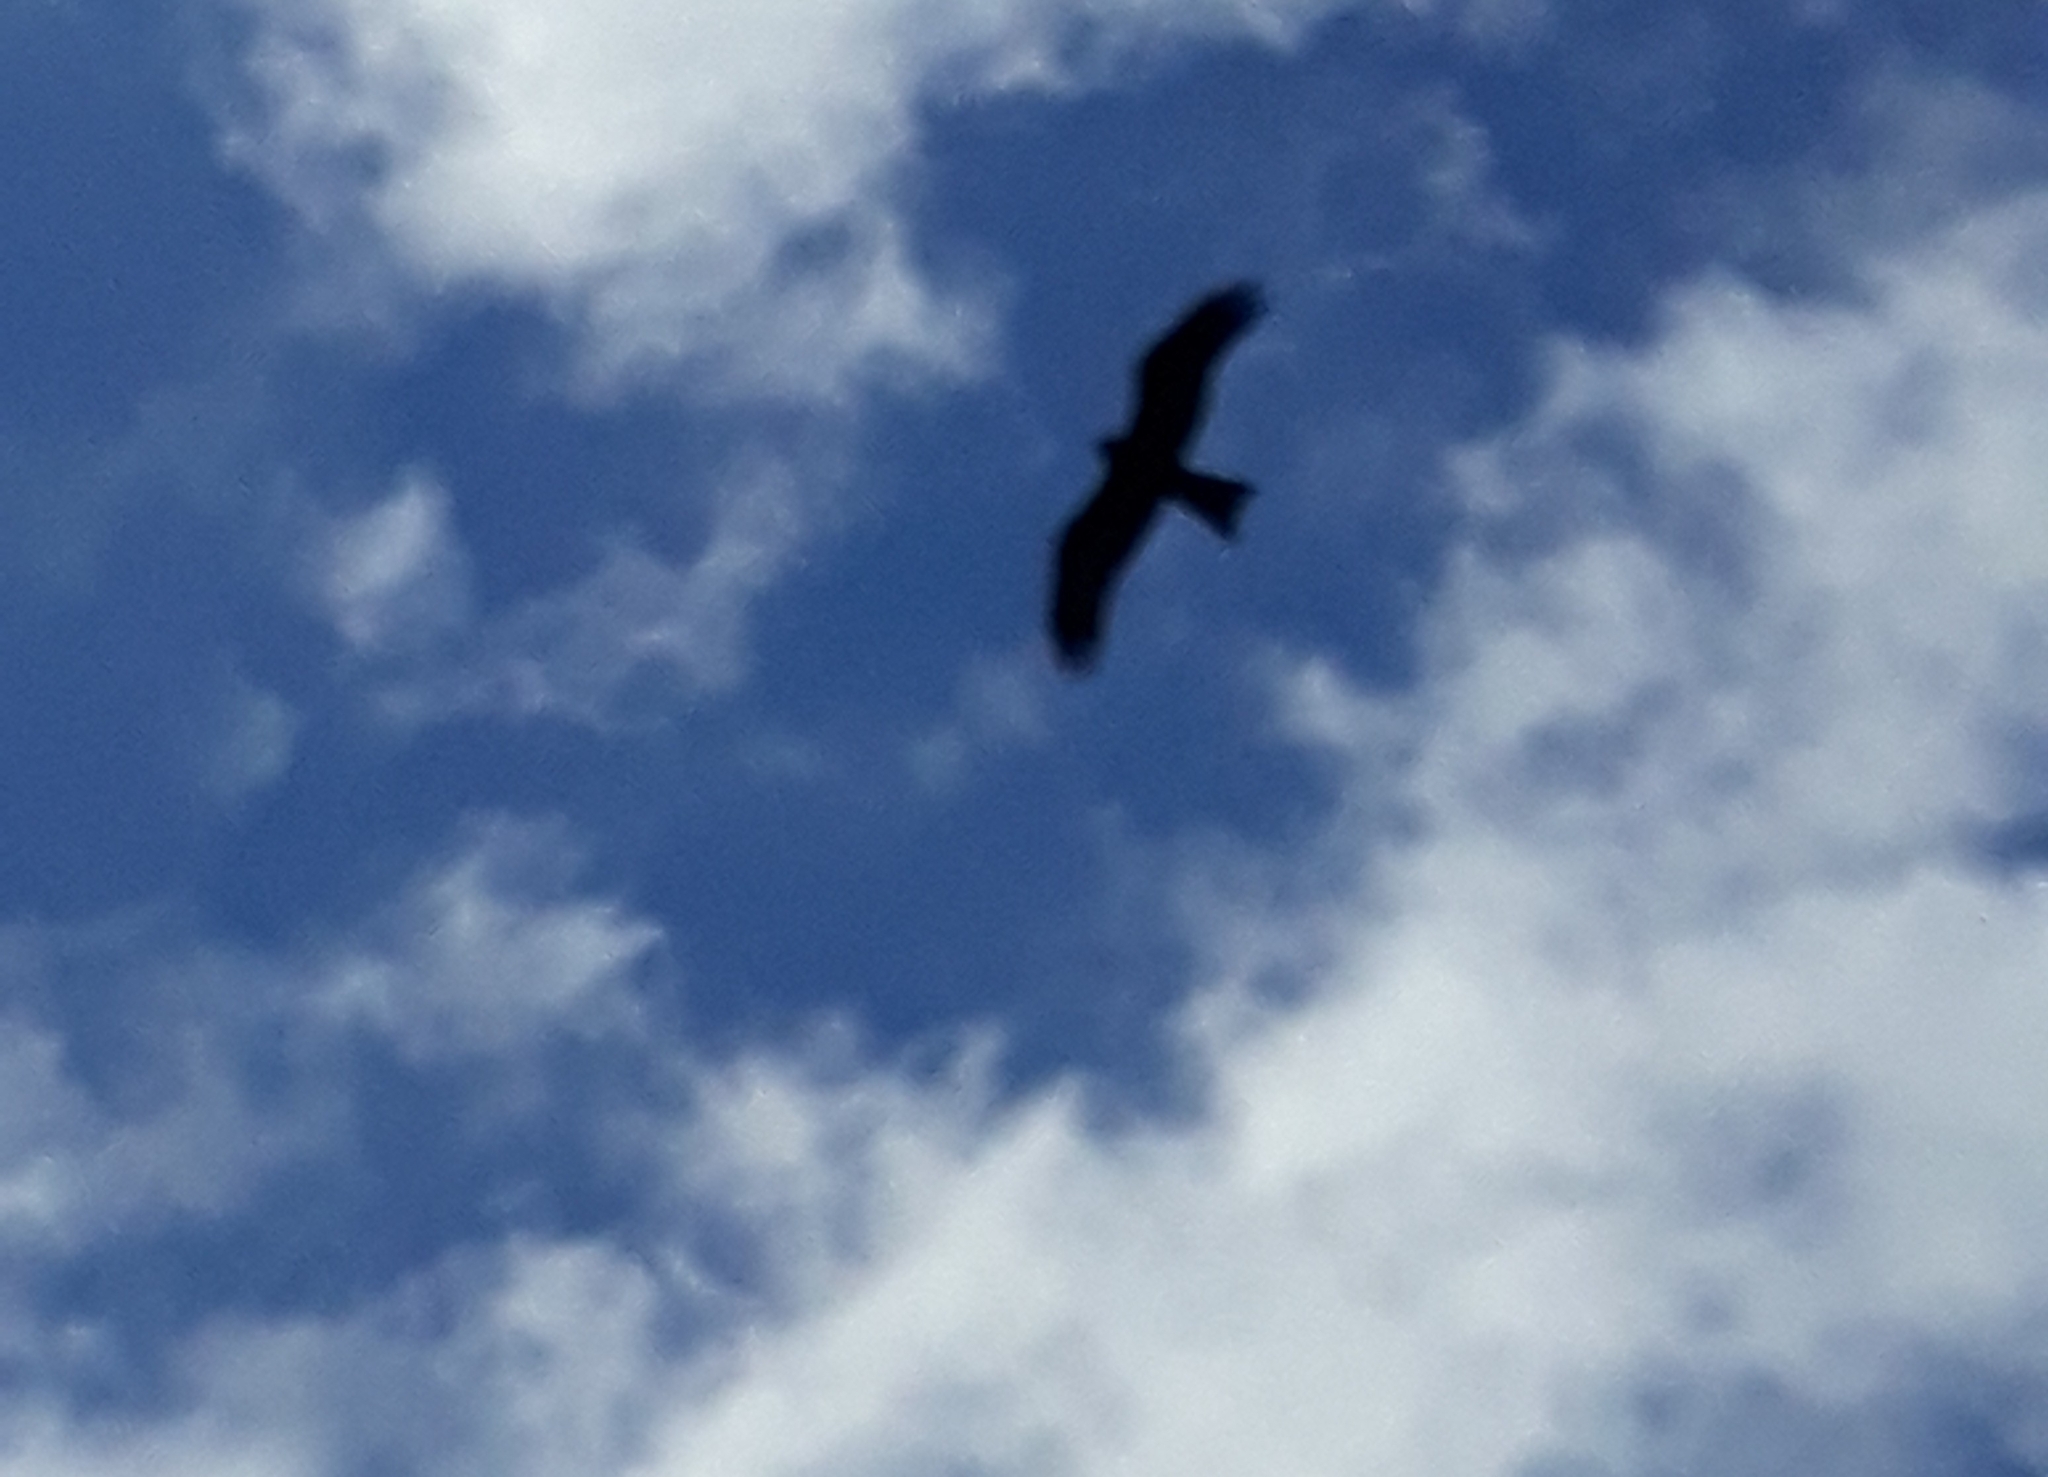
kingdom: Animalia
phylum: Chordata
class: Aves
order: Accipitriformes
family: Accipitridae
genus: Milvus
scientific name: Milvus migrans
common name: Black kite
